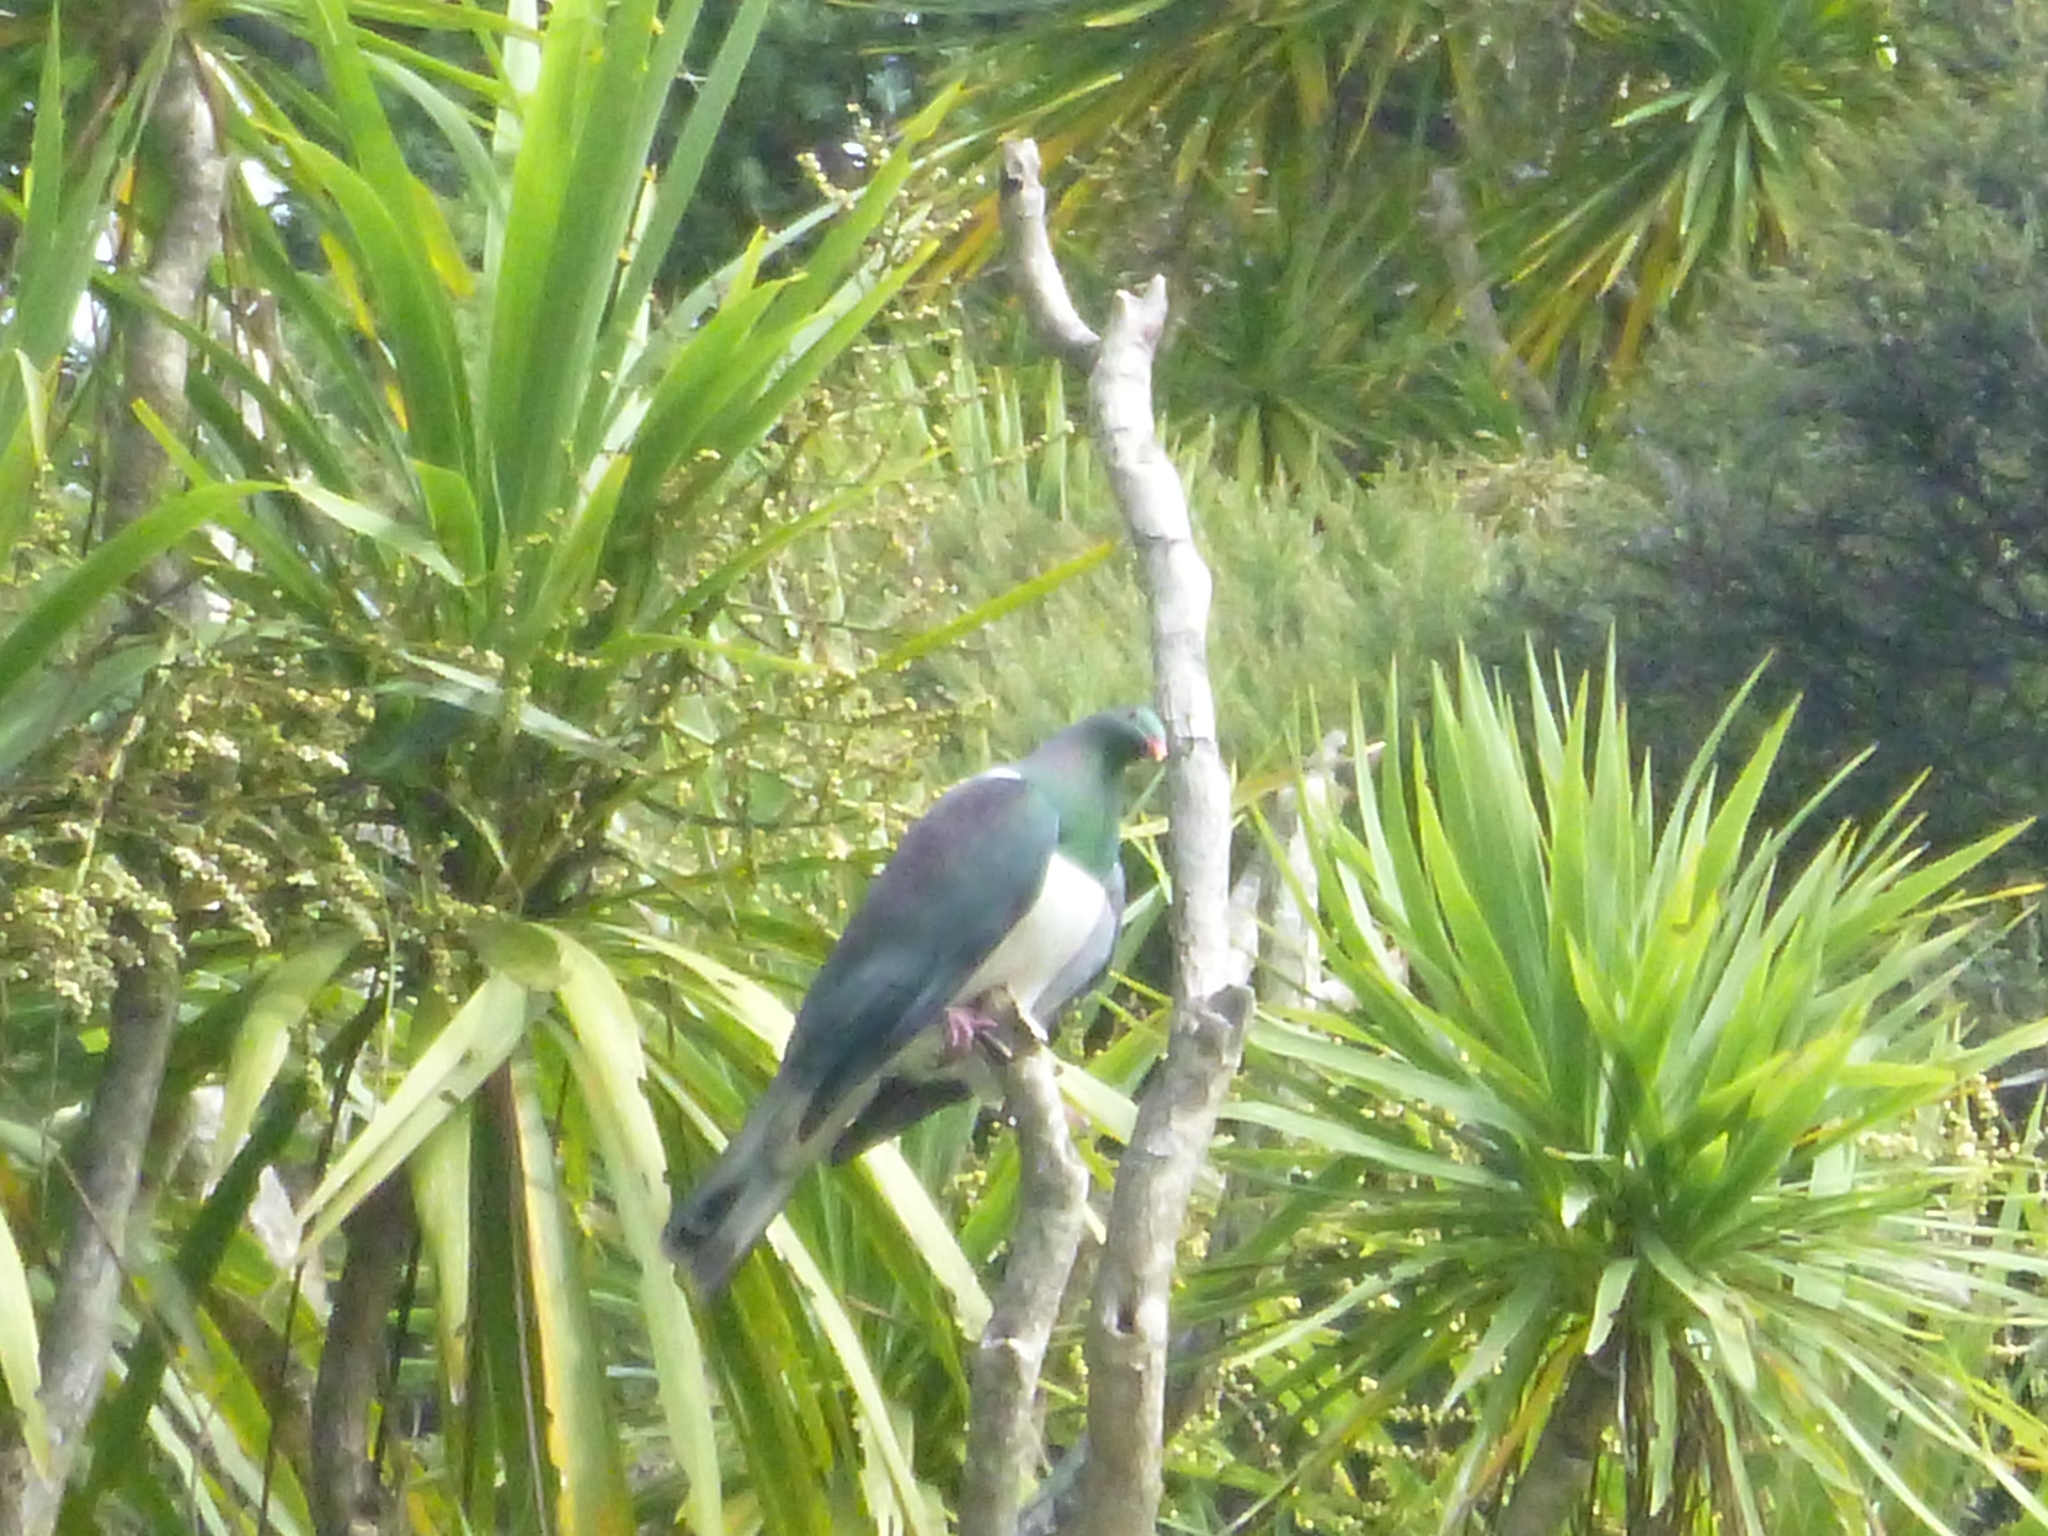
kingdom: Animalia
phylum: Chordata
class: Aves
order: Columbiformes
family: Columbidae
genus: Hemiphaga
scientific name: Hemiphaga novaeseelandiae
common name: New zealand pigeon
